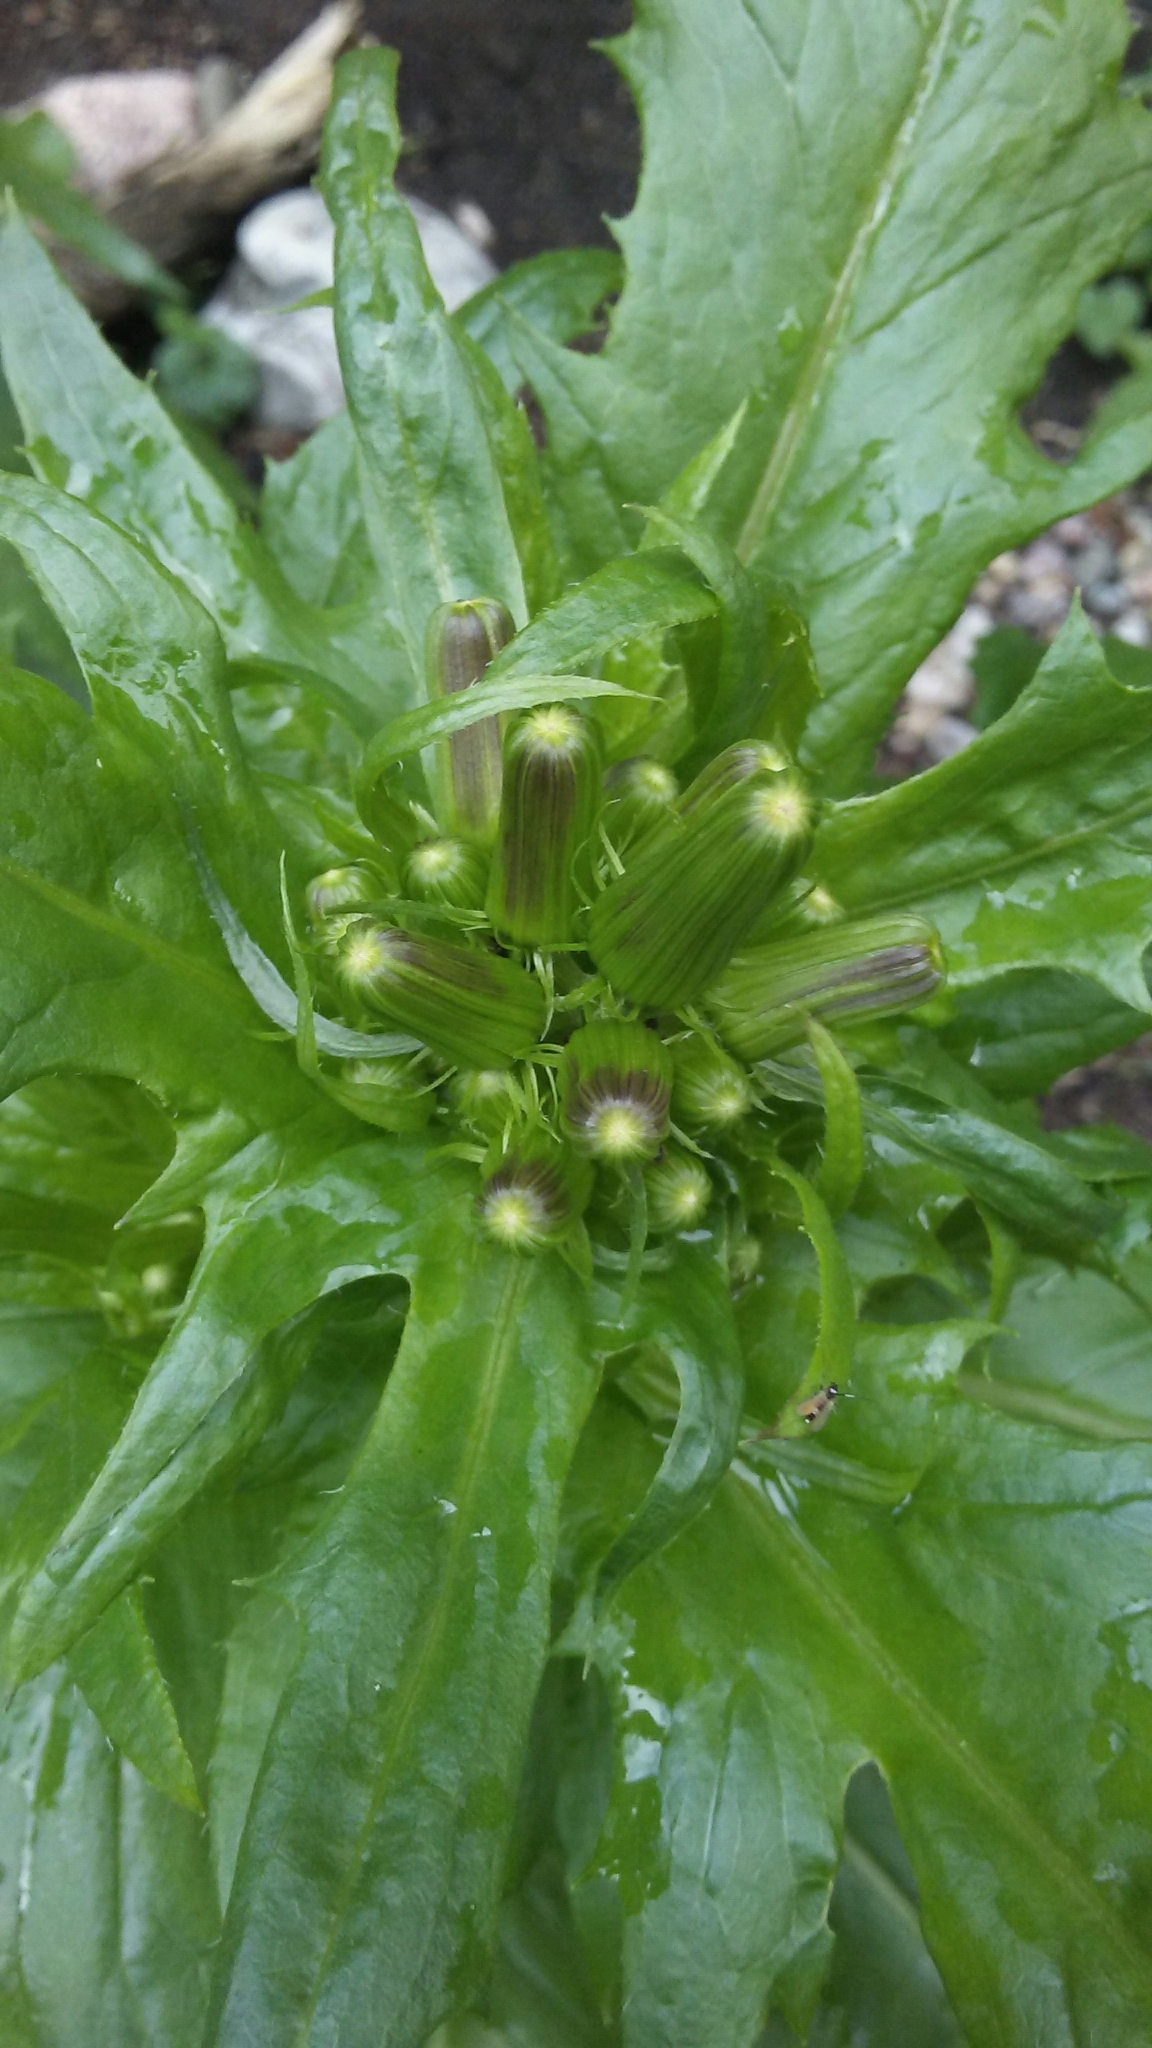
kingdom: Plantae
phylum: Tracheophyta
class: Magnoliopsida
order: Asterales
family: Asteraceae
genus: Erechtites
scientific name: Erechtites hieraciifolius
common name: American burnweed
